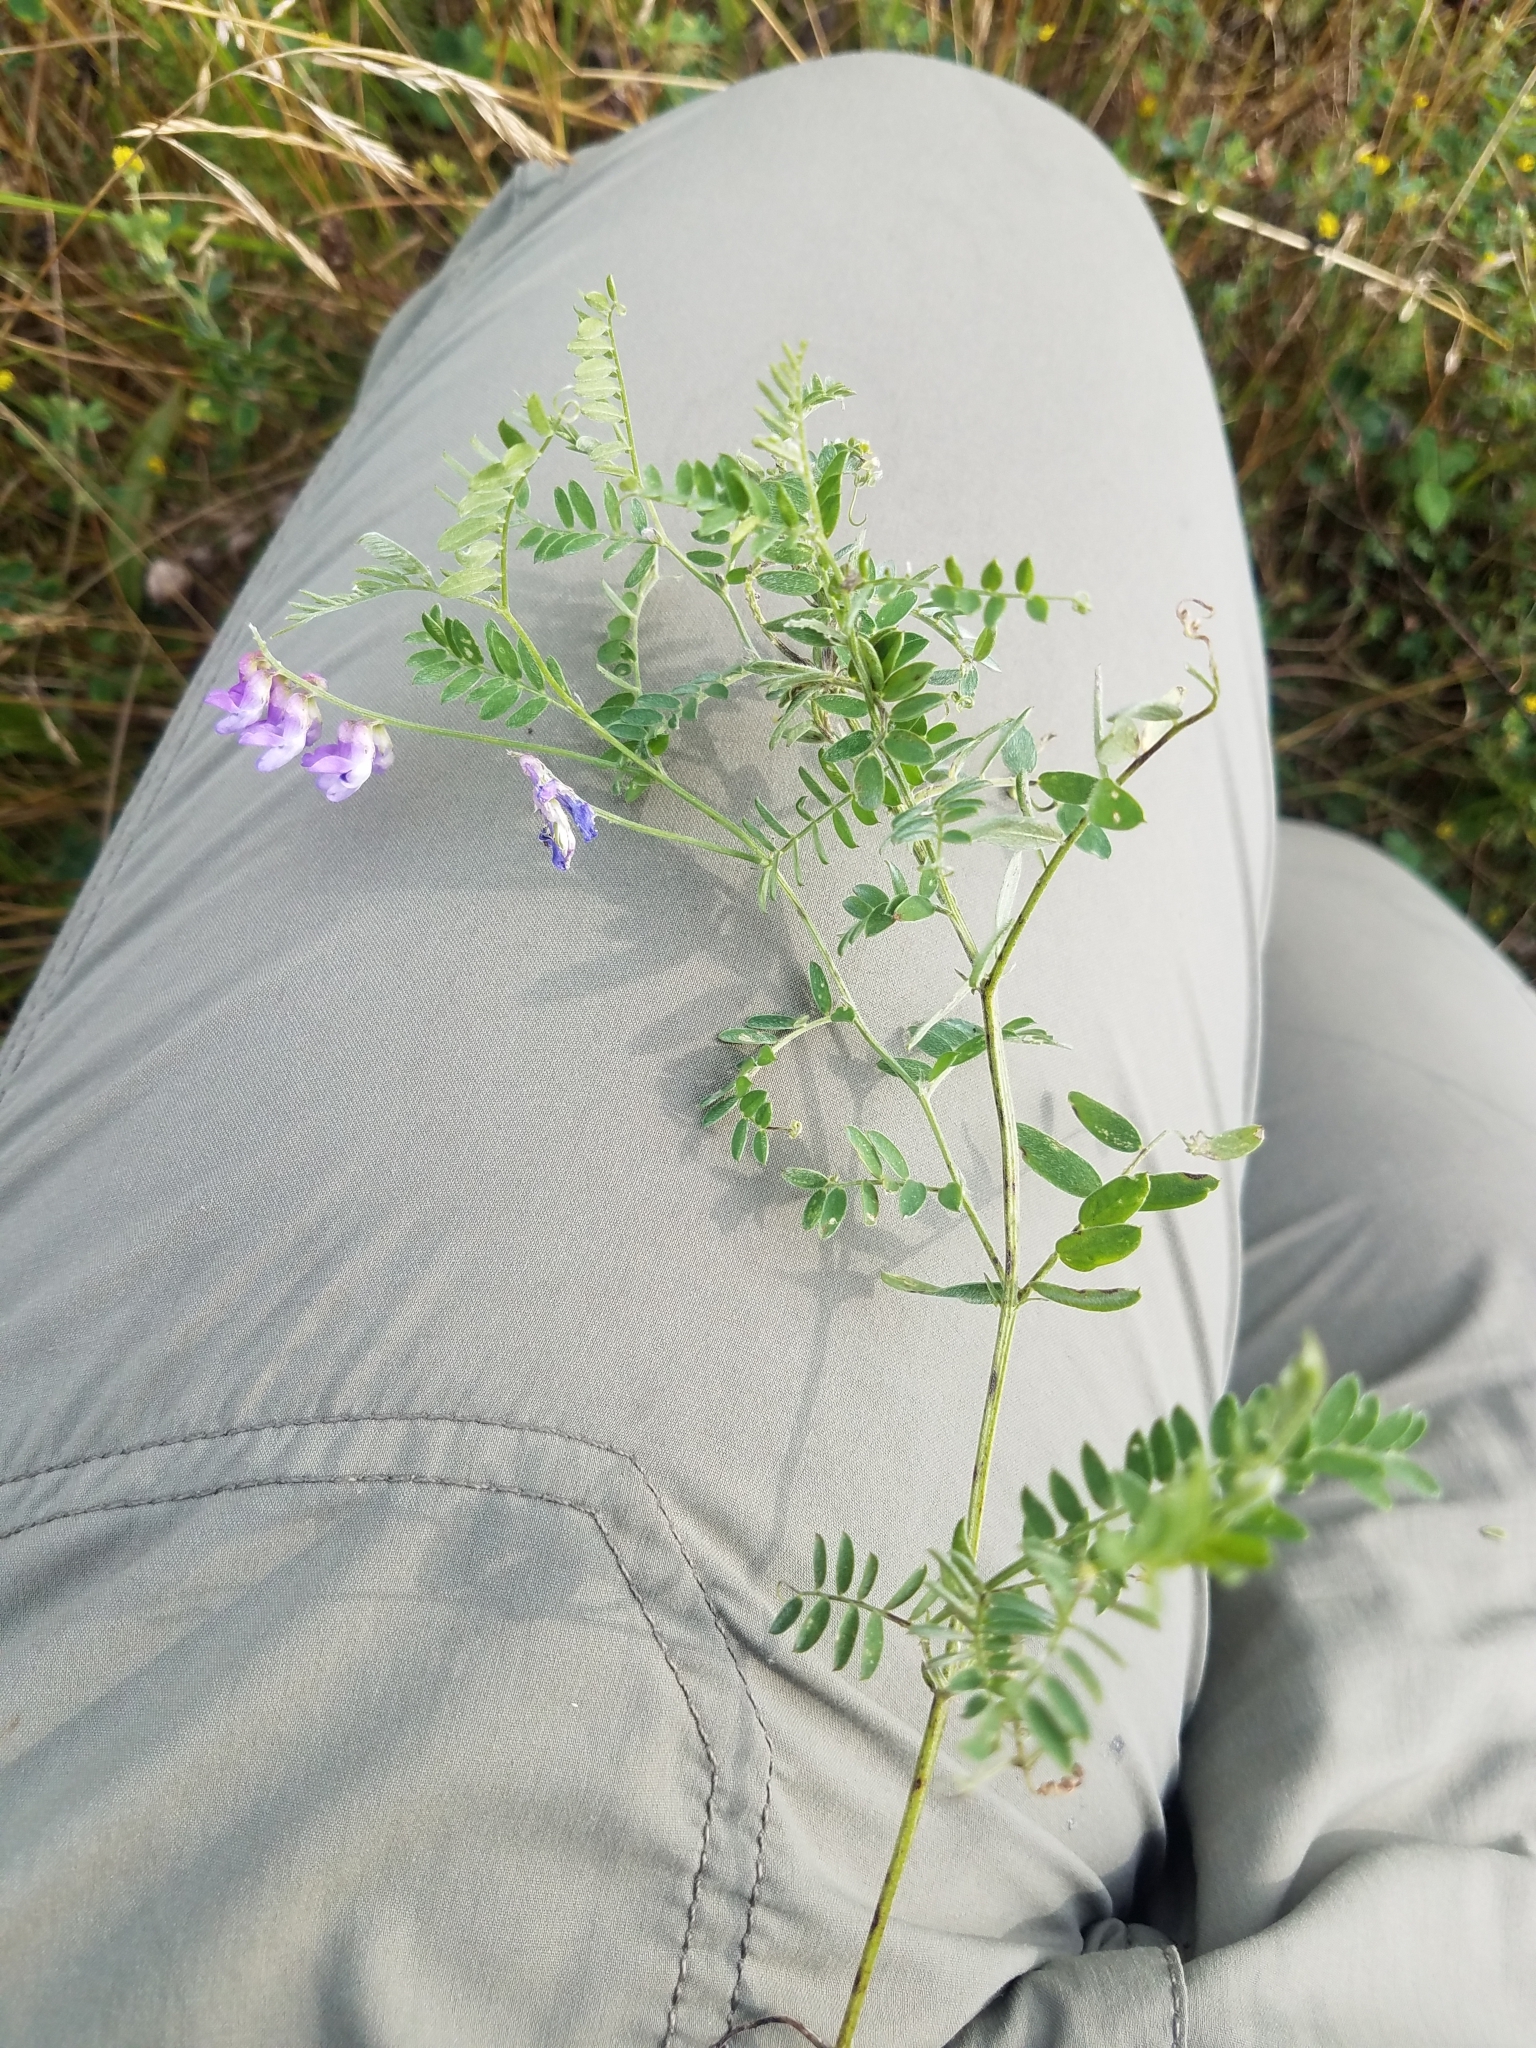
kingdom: Plantae
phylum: Tracheophyta
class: Magnoliopsida
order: Fabales
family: Fabaceae
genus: Vicia
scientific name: Vicia cracca
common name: Bird vetch
